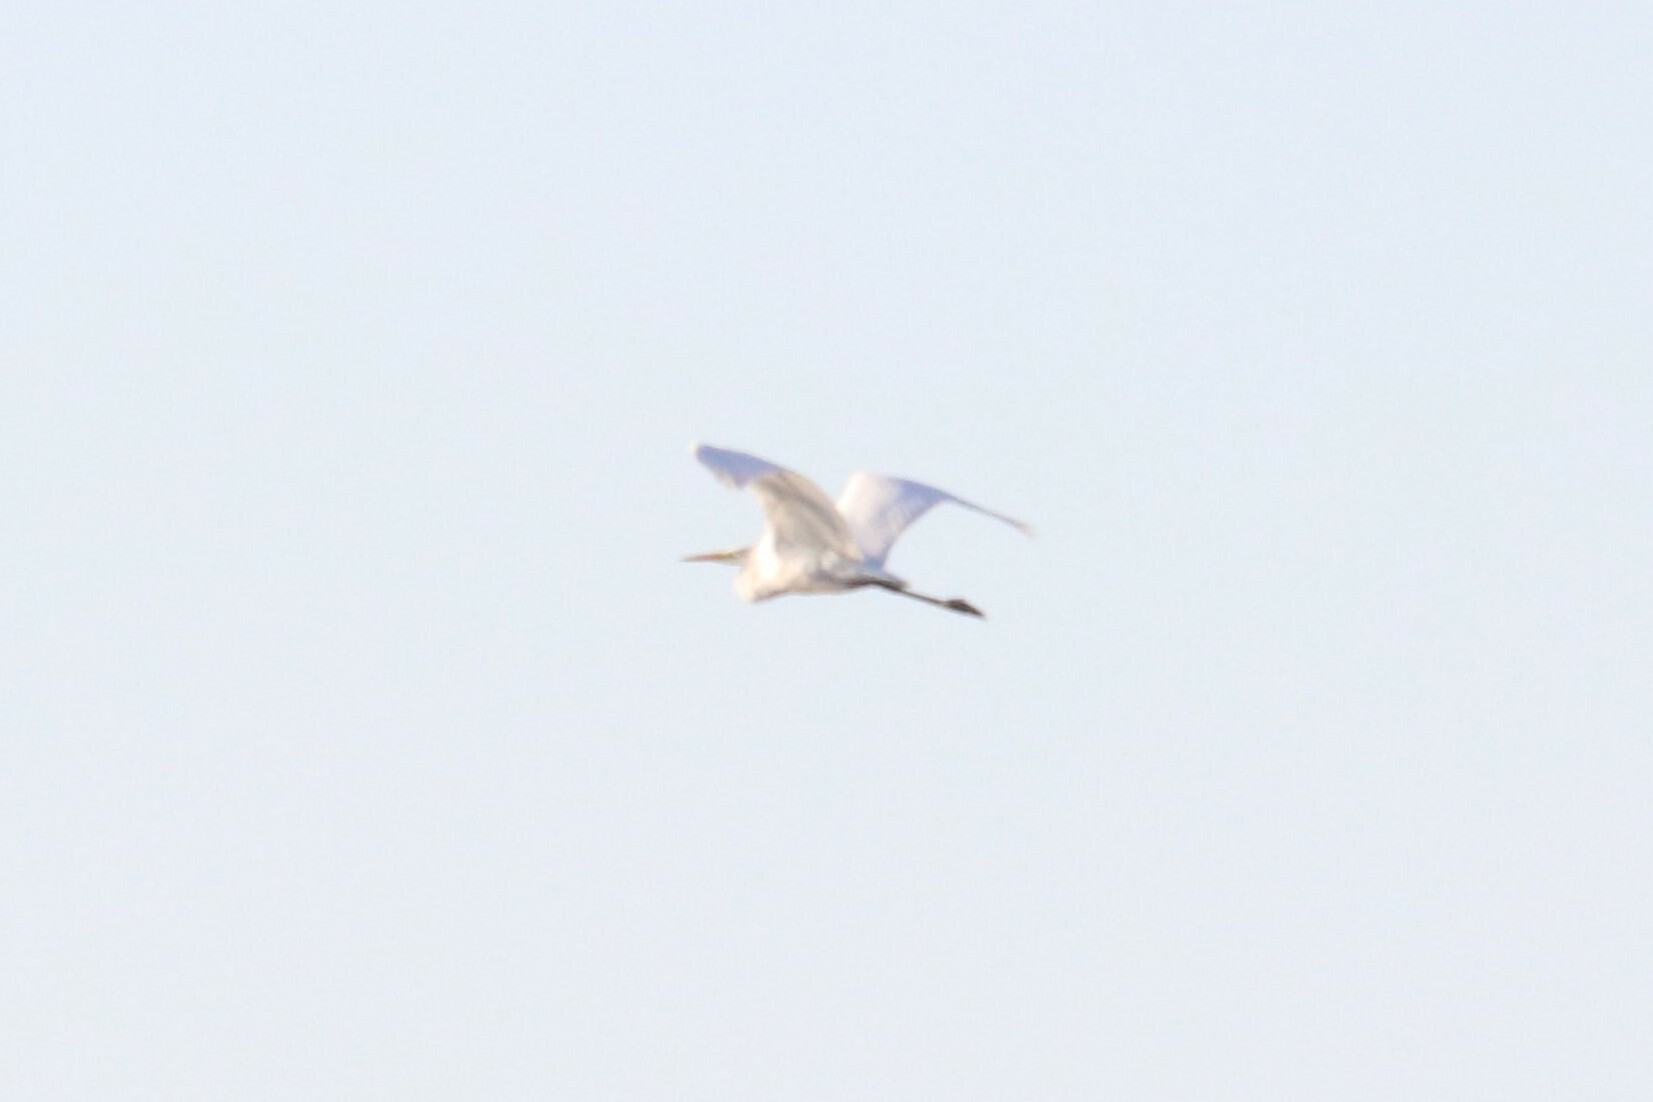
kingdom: Animalia
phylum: Chordata
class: Aves
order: Pelecaniformes
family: Ardeidae
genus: Ardea
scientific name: Ardea alba
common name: Great egret
